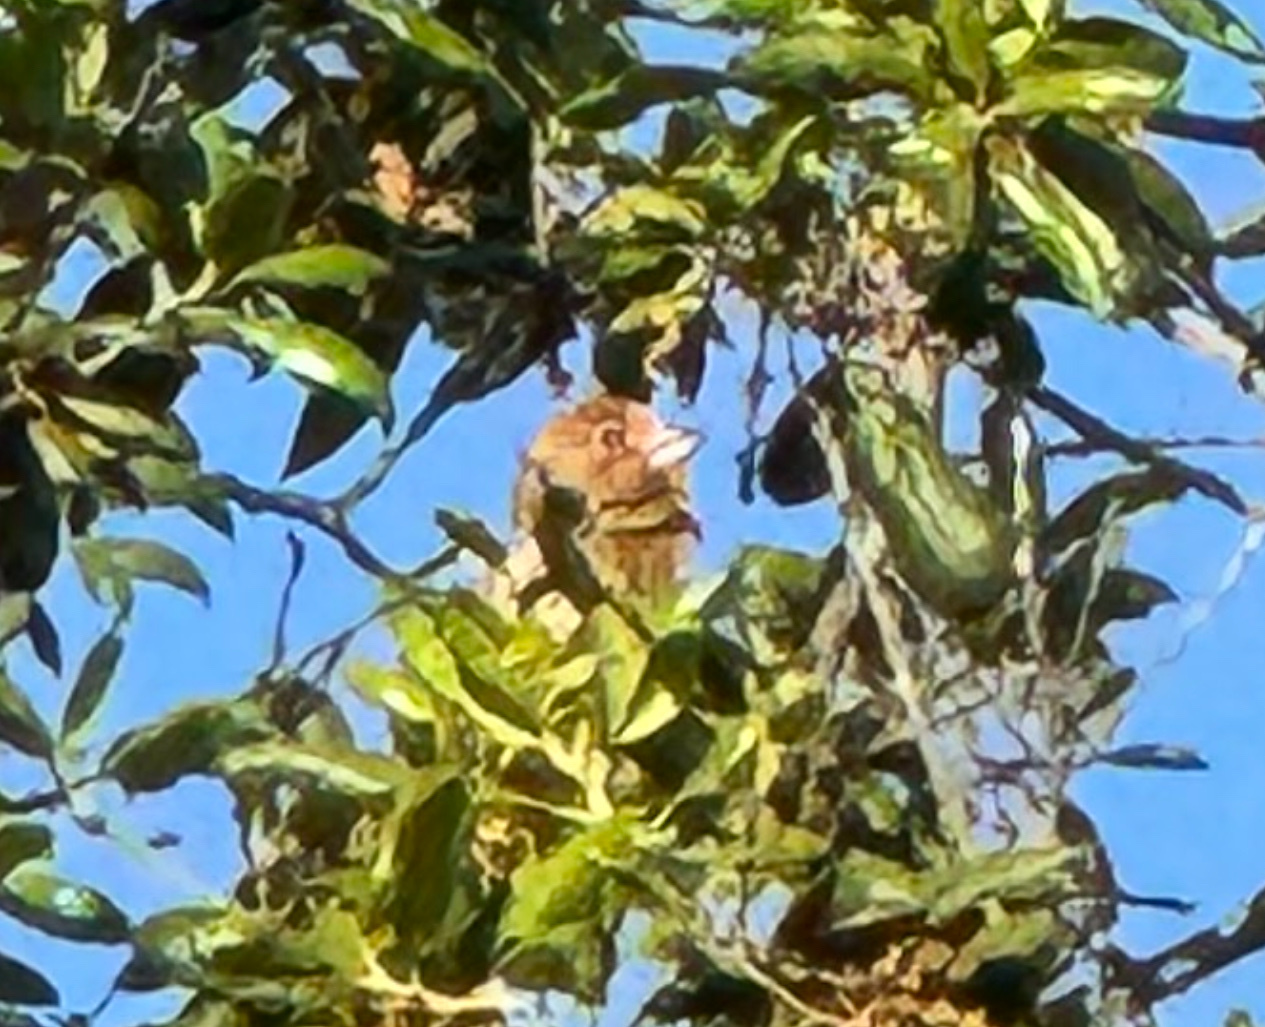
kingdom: Animalia
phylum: Chordata
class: Aves
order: Passeriformes
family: Fringillidae
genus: Haemorhous
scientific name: Haemorhous mexicanus
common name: House finch
